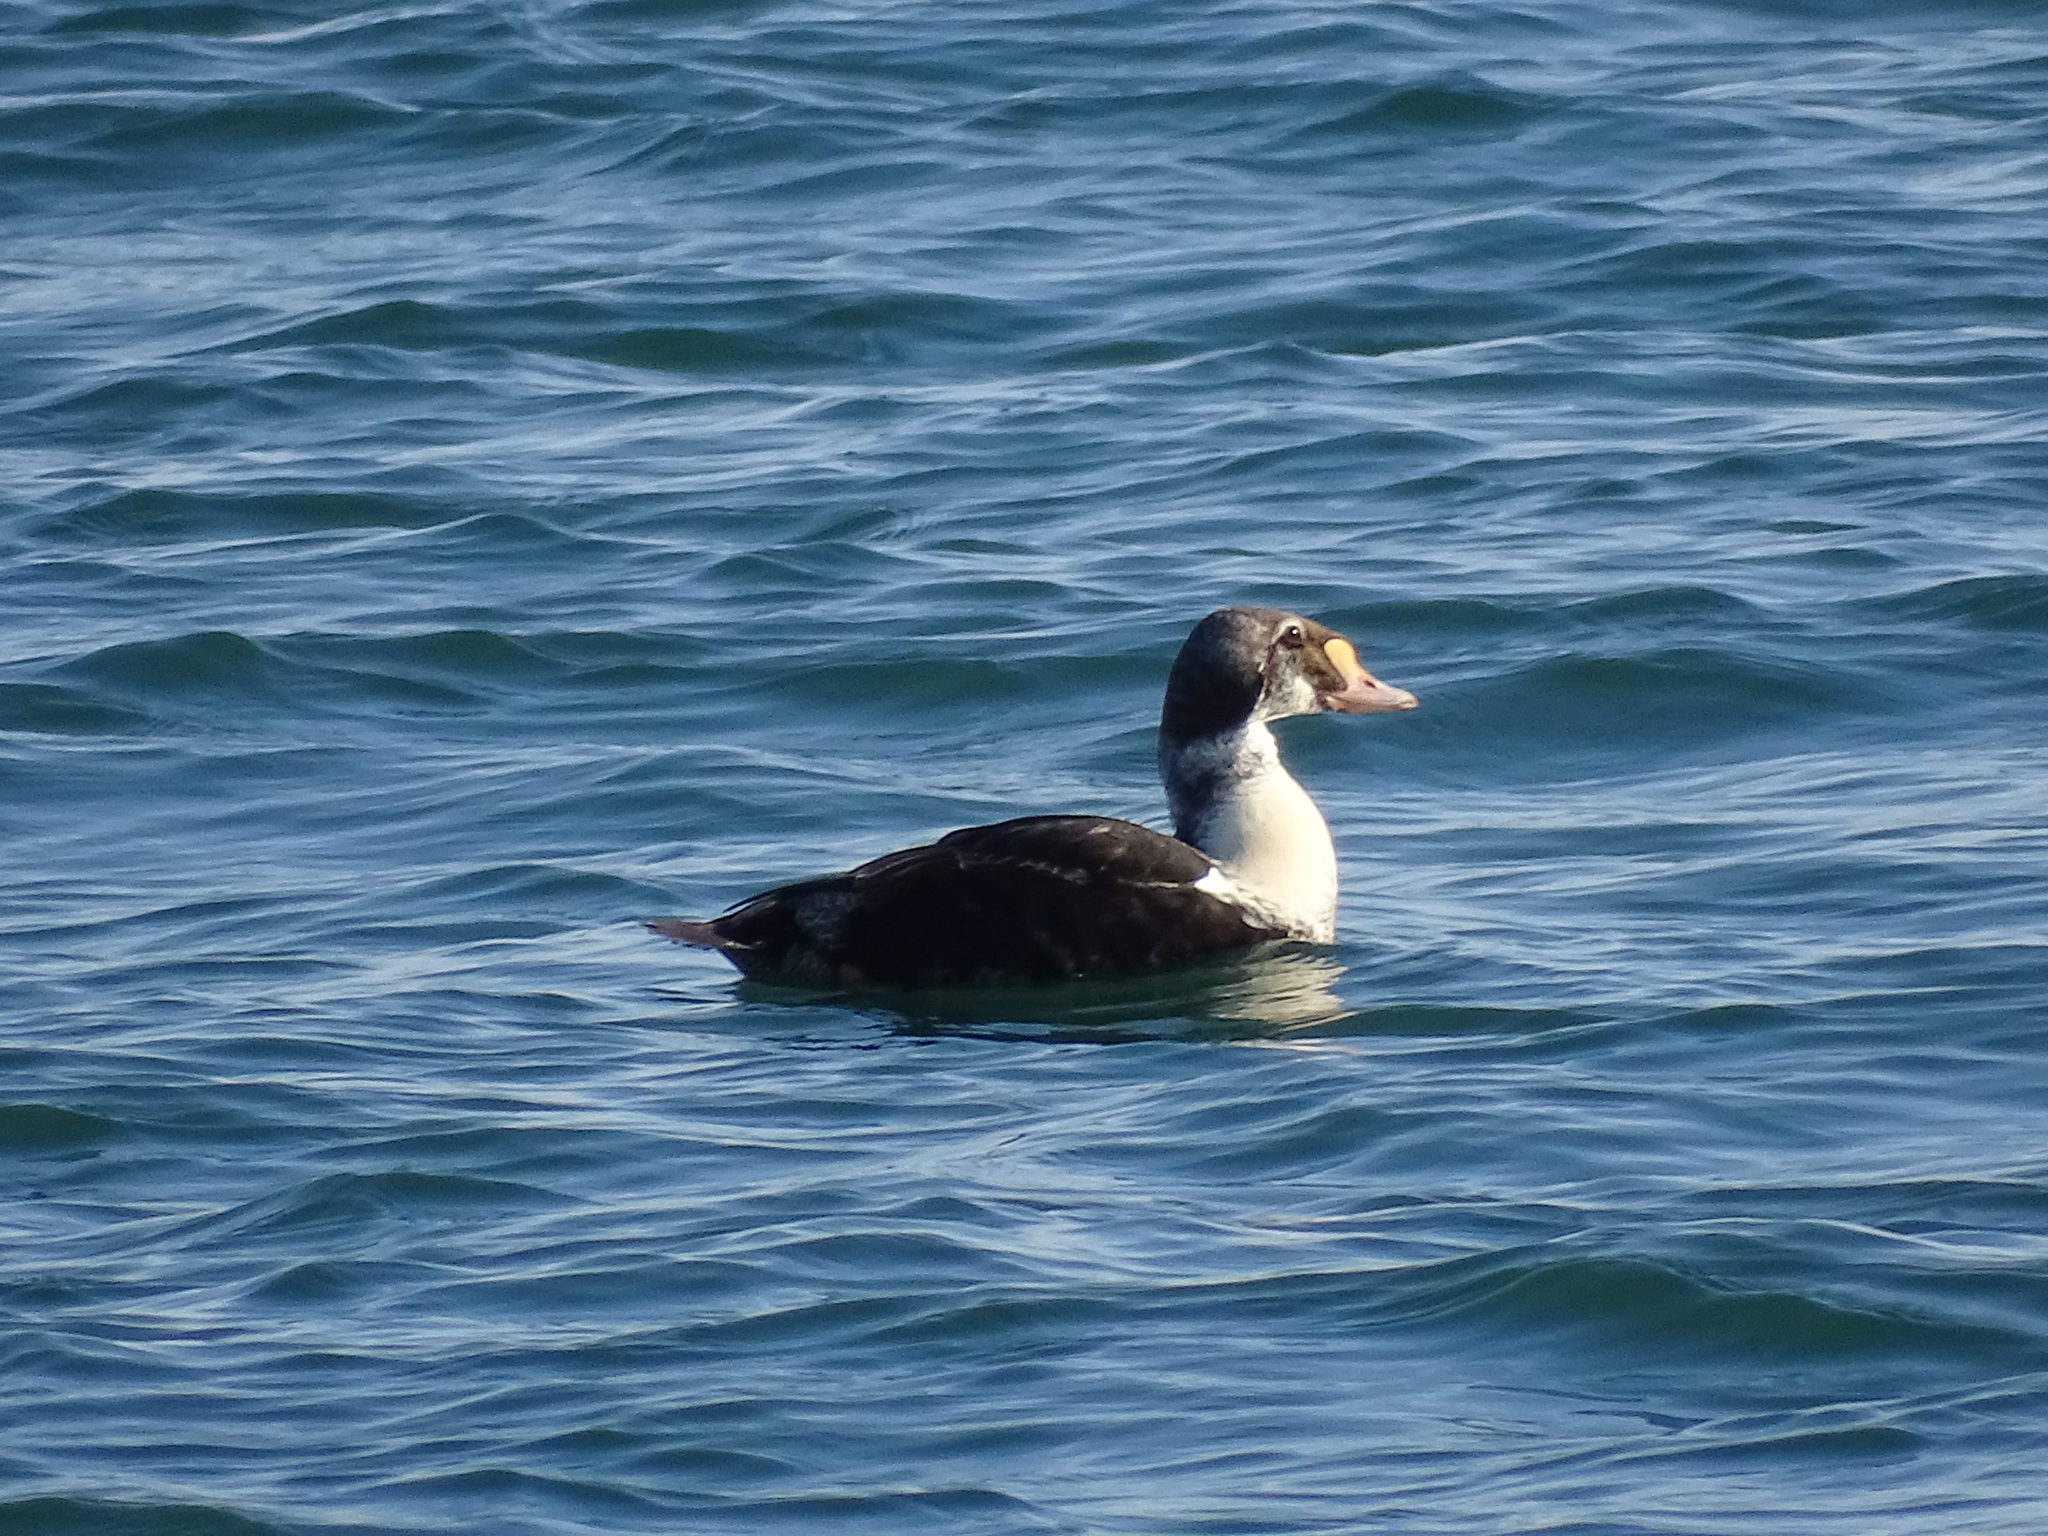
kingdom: Animalia
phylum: Chordata
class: Aves
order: Anseriformes
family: Anatidae
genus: Somateria
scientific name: Somateria spectabilis
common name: King eider
